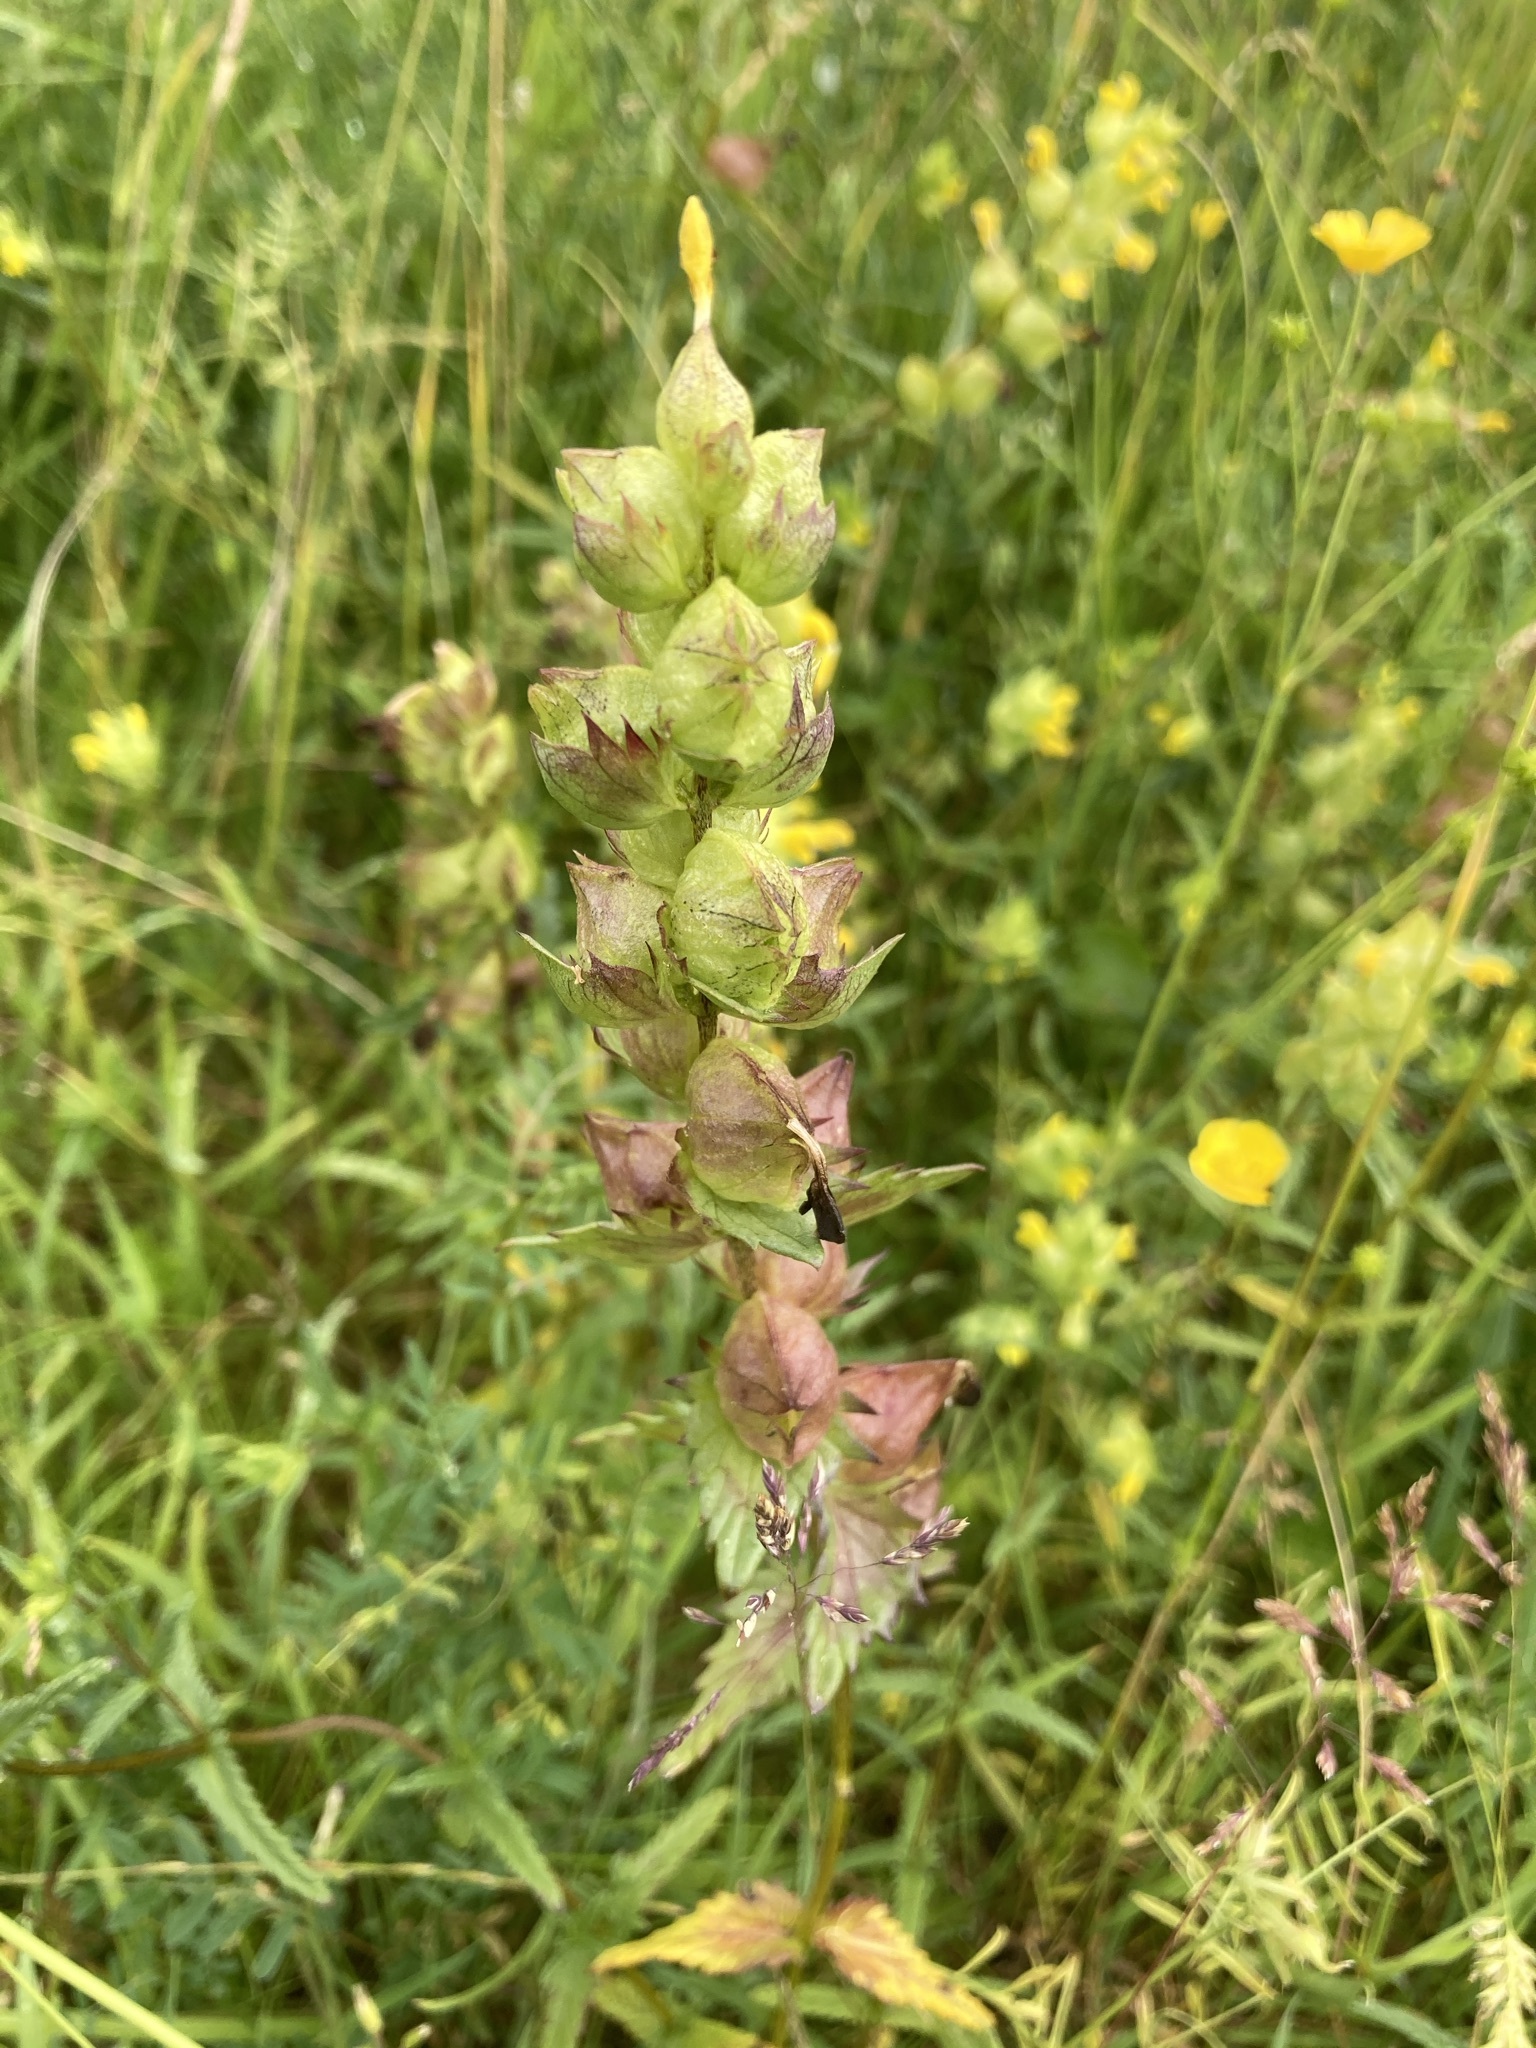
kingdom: Plantae
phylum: Tracheophyta
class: Magnoliopsida
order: Lamiales
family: Orobanchaceae
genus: Rhinanthus
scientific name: Rhinanthus minor
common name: Yellow-rattle
